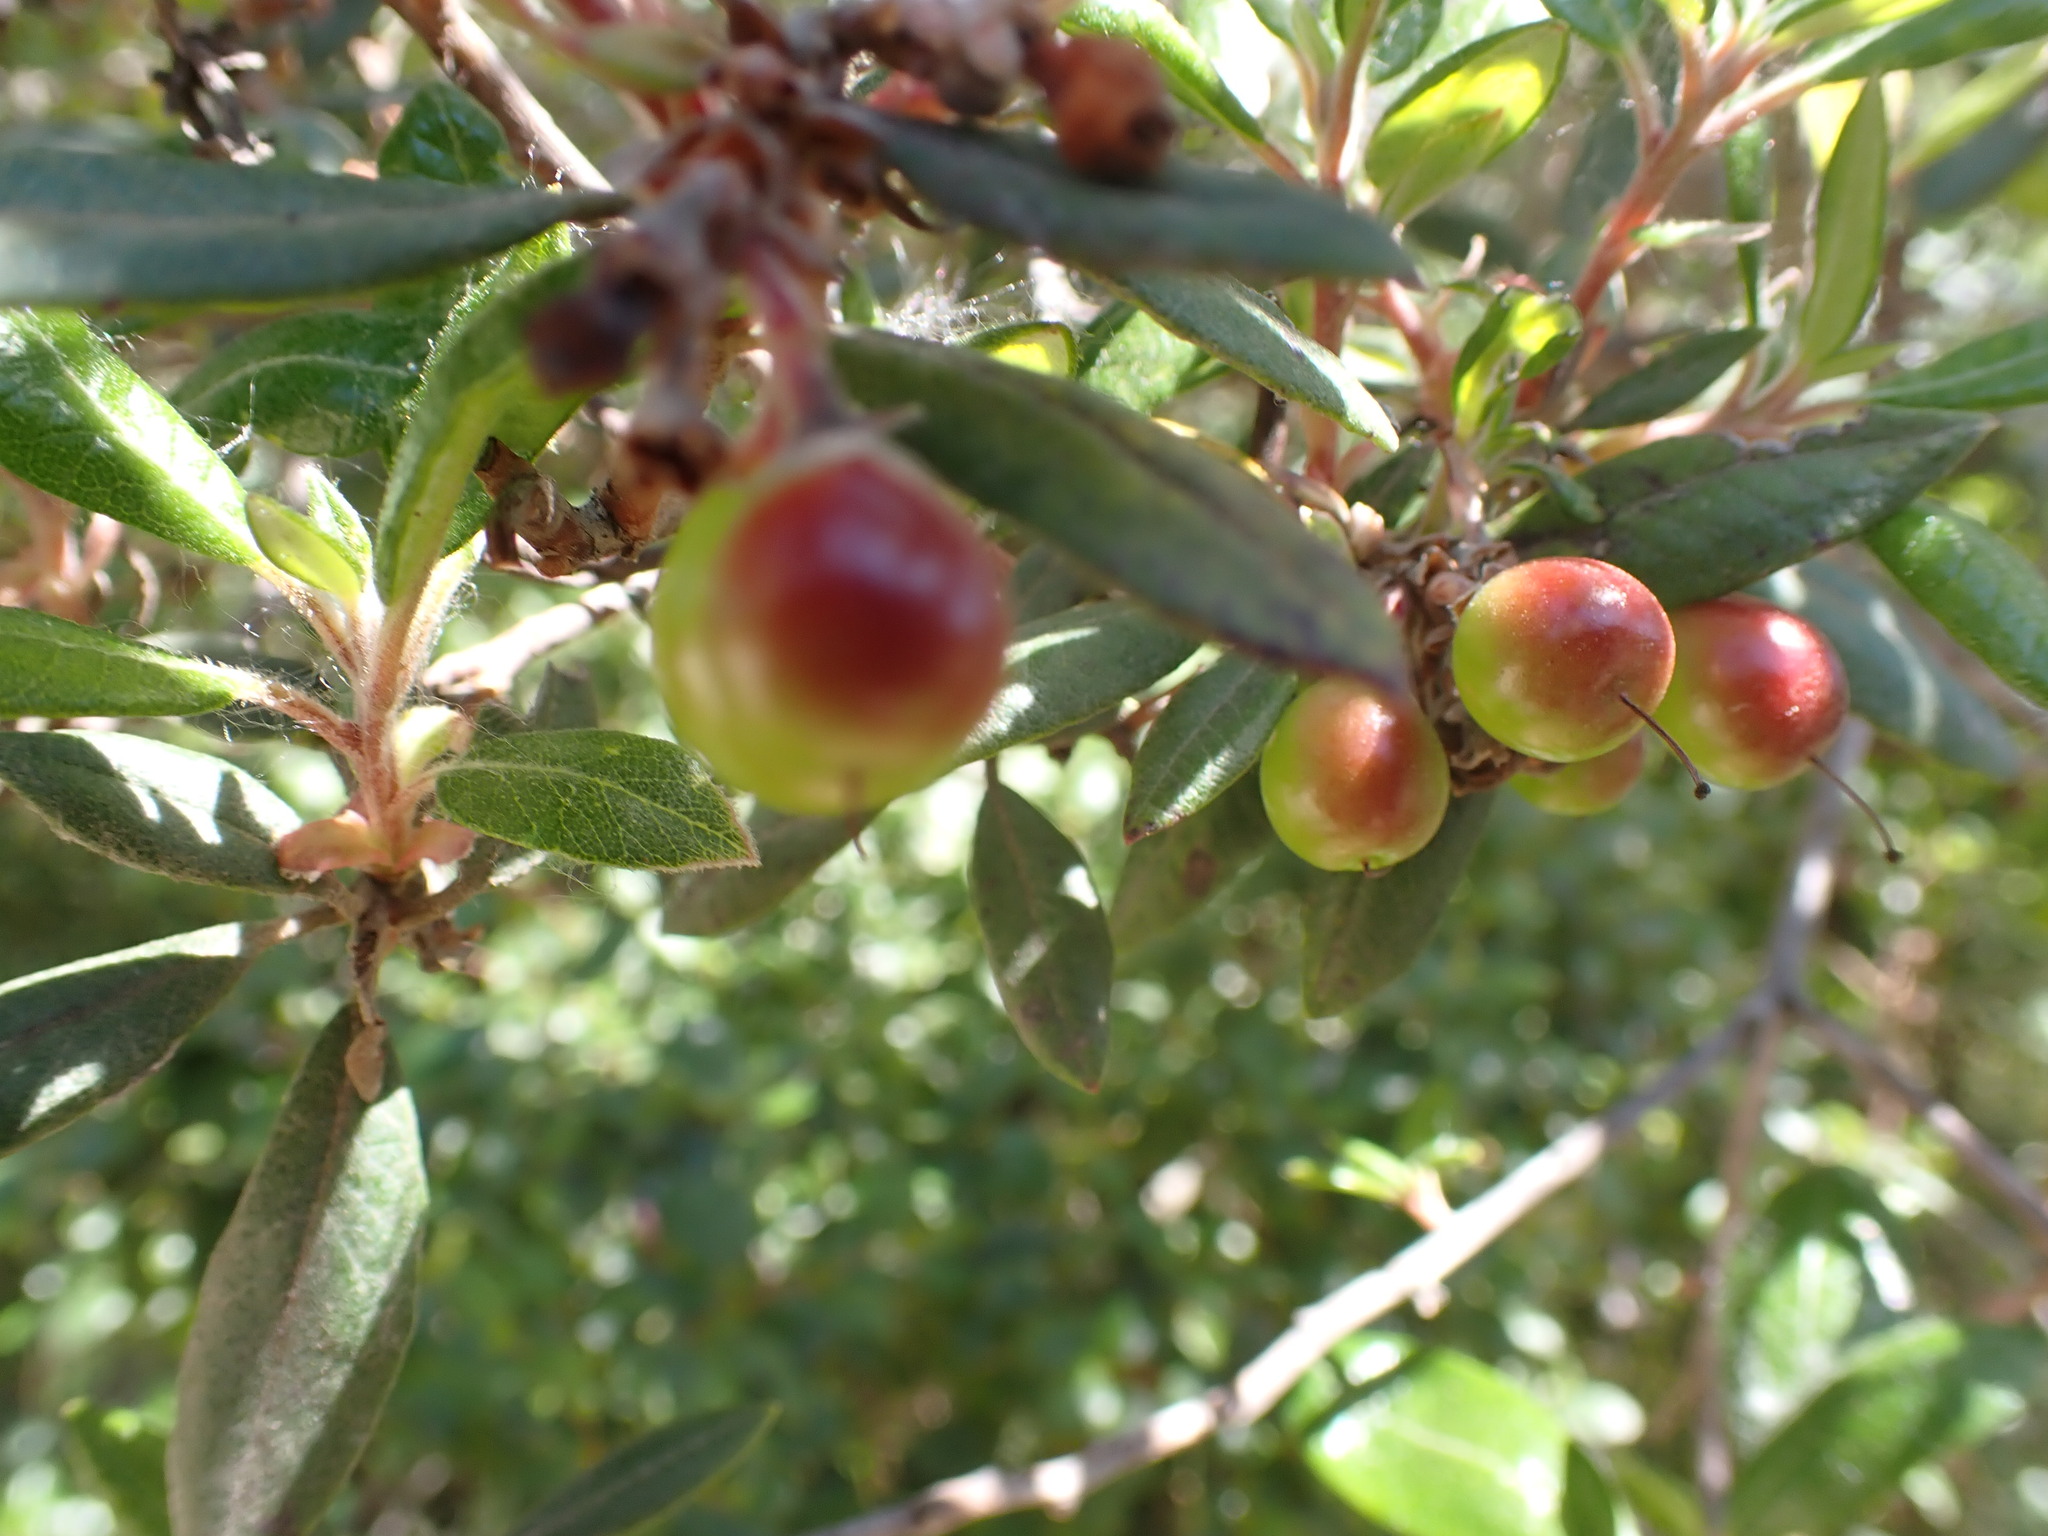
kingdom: Plantae
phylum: Tracheophyta
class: Magnoliopsida
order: Ericales
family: Ericaceae
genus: Arctostaphylos
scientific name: Arctostaphylos bicolor
